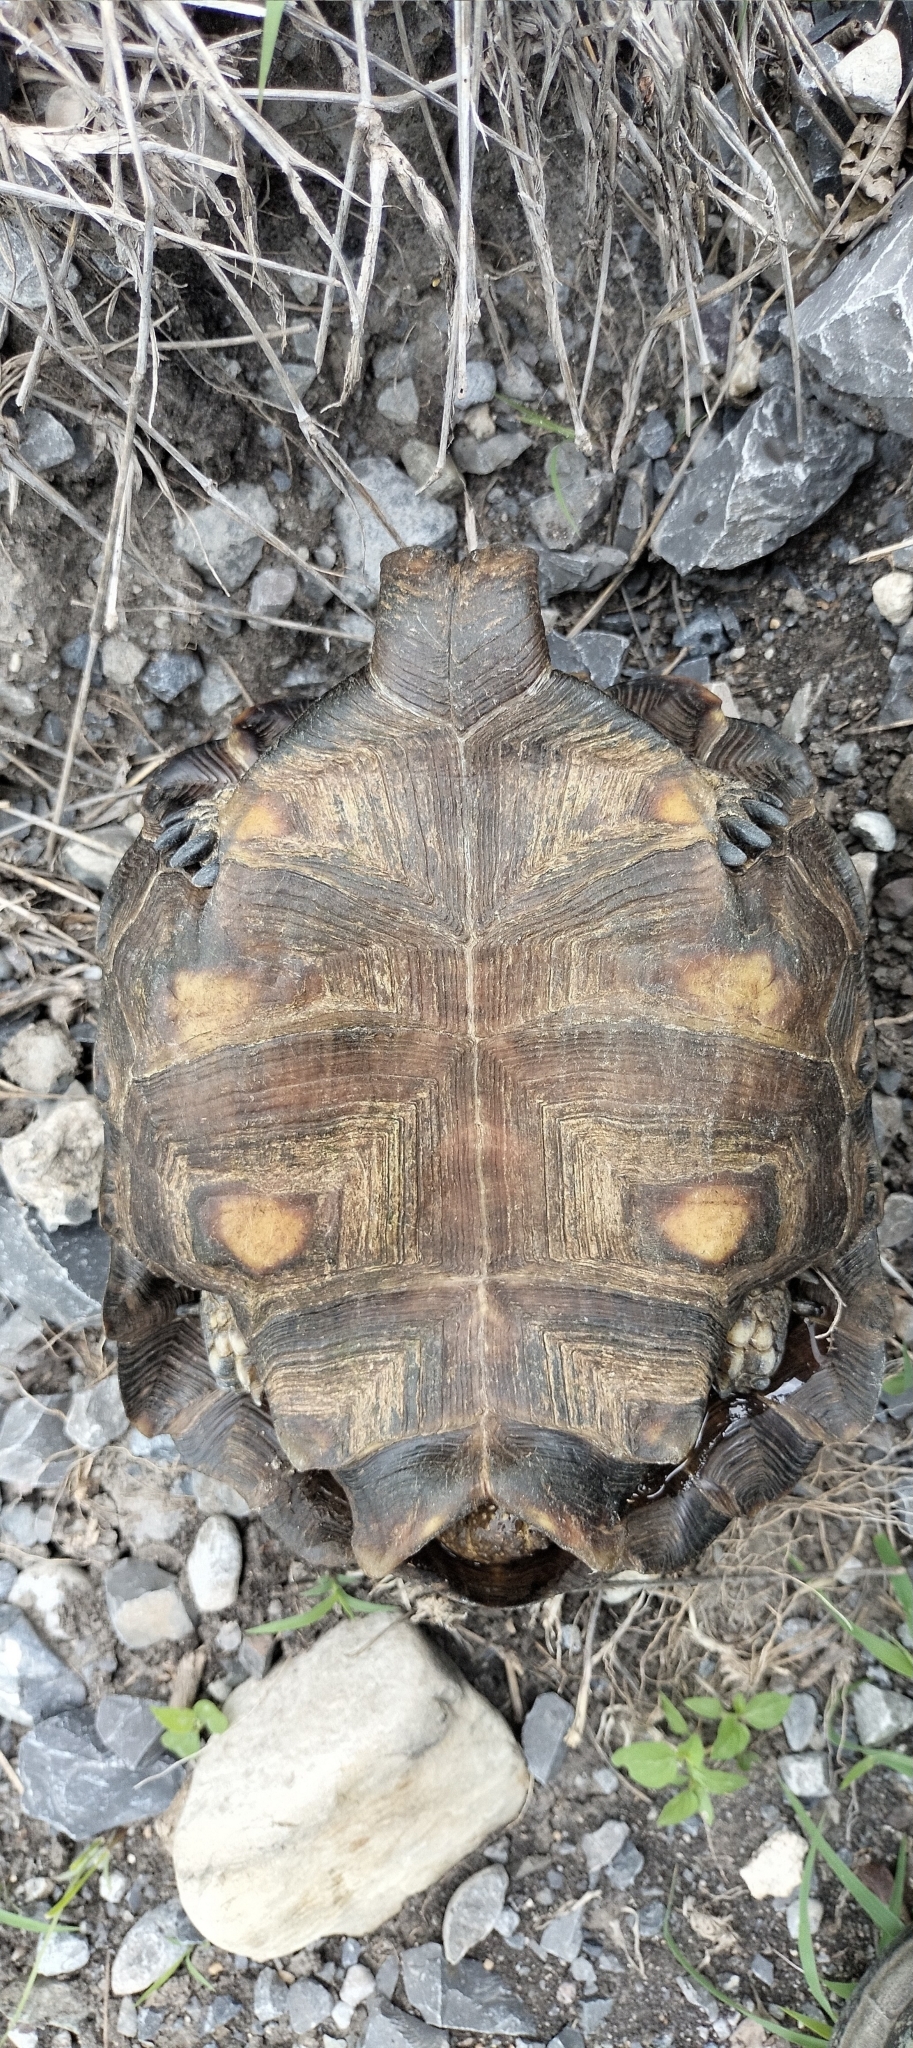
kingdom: Animalia
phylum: Chordata
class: Testudines
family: Testudinidae
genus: Gopherus
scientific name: Gopherus berlandieri
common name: Texas (gopher )tortoise
